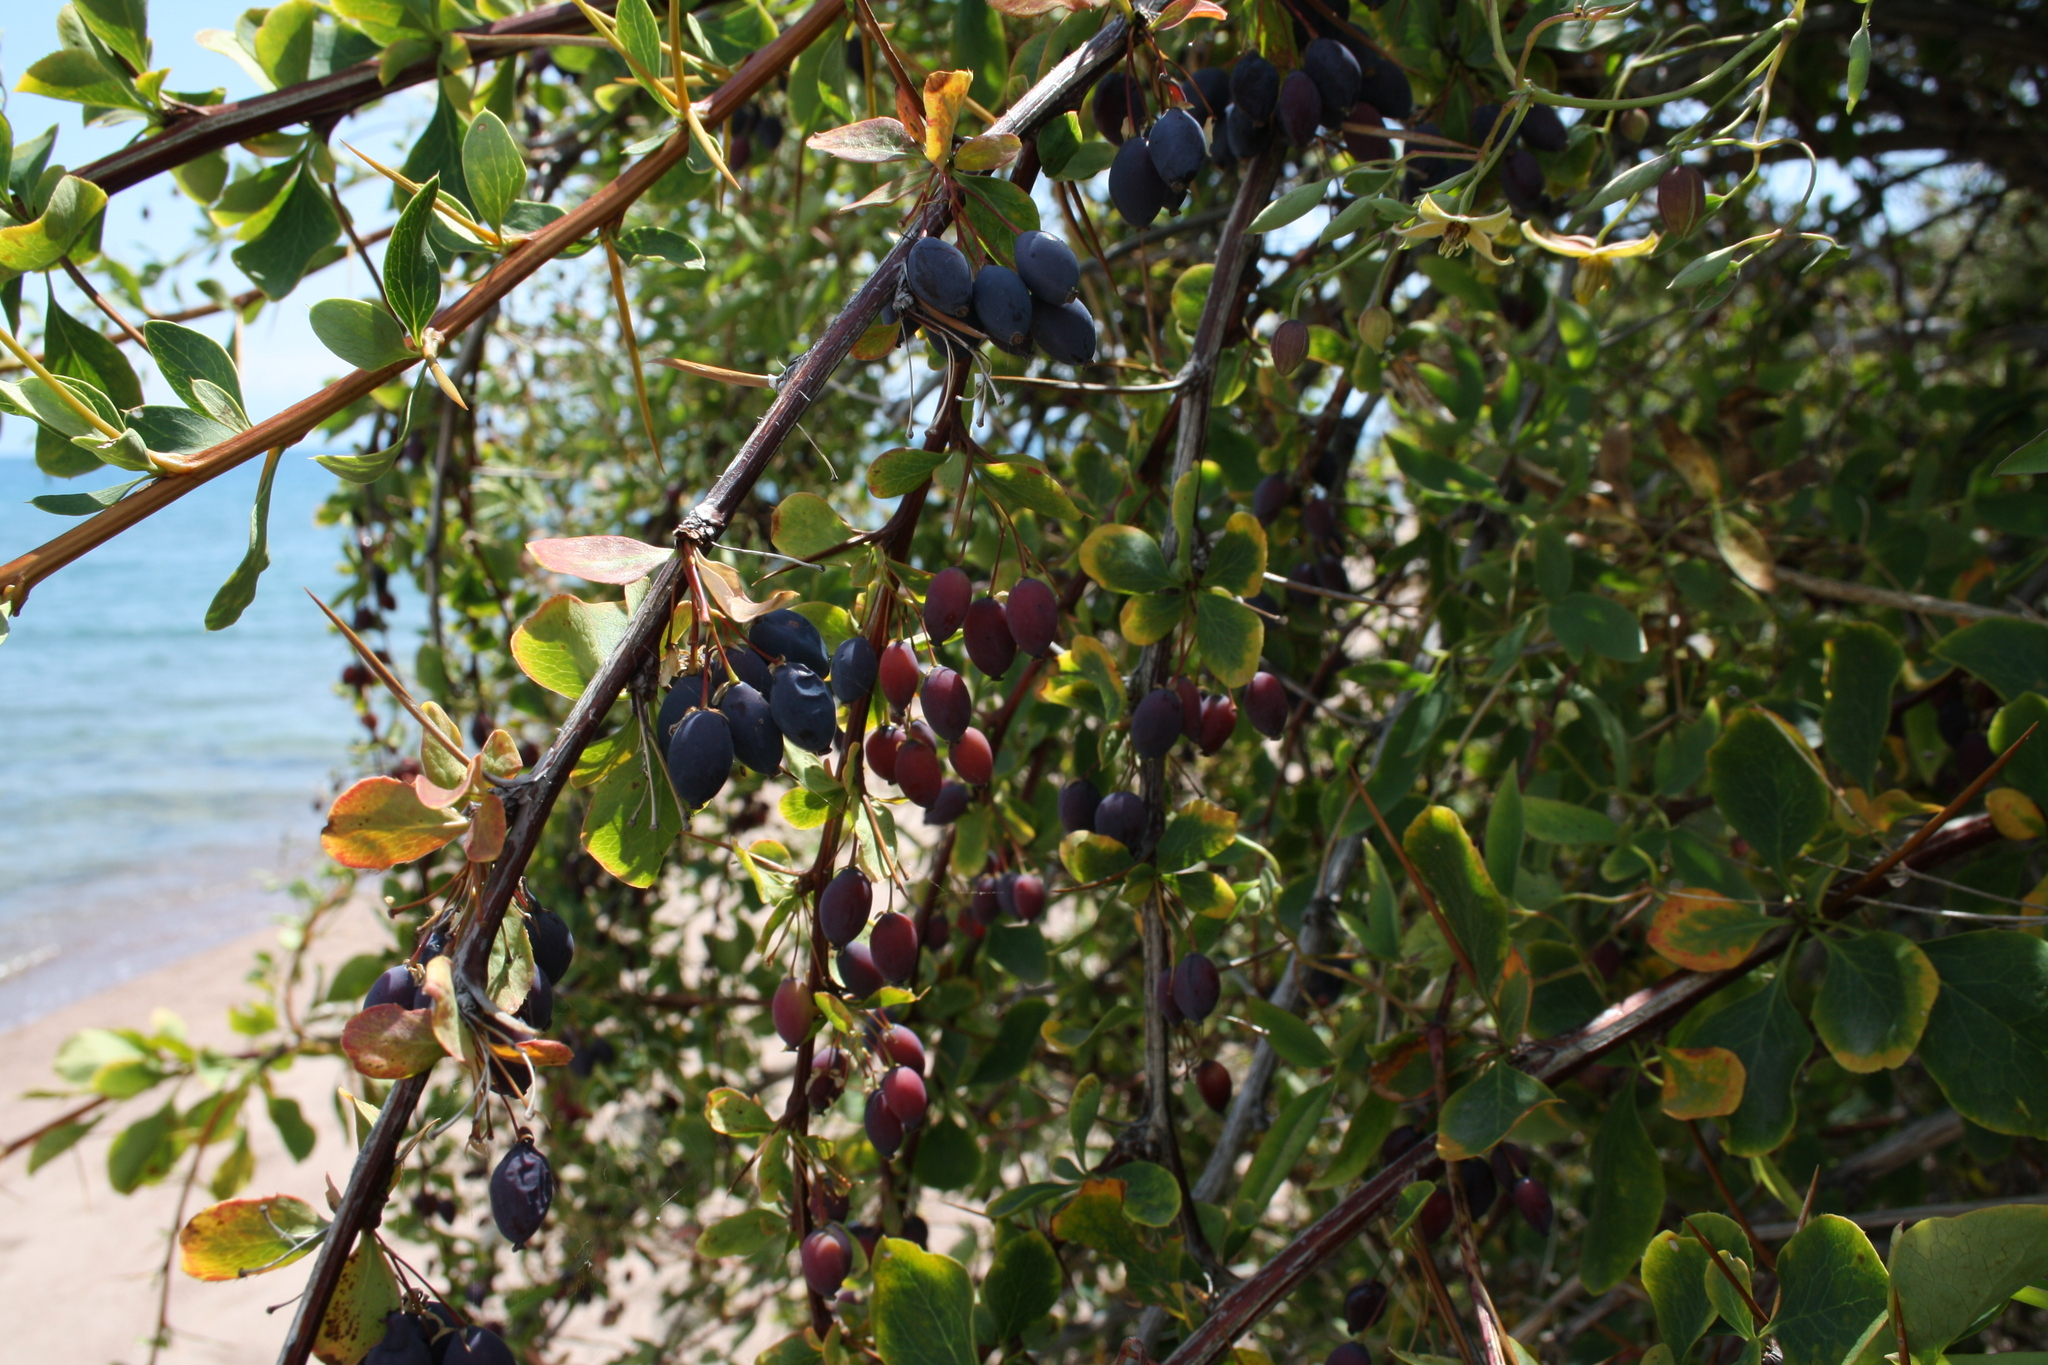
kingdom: Plantae
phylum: Tracheophyta
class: Magnoliopsida
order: Ranunculales
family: Berberidaceae
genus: Berberis
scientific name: Berberis heteropoda
